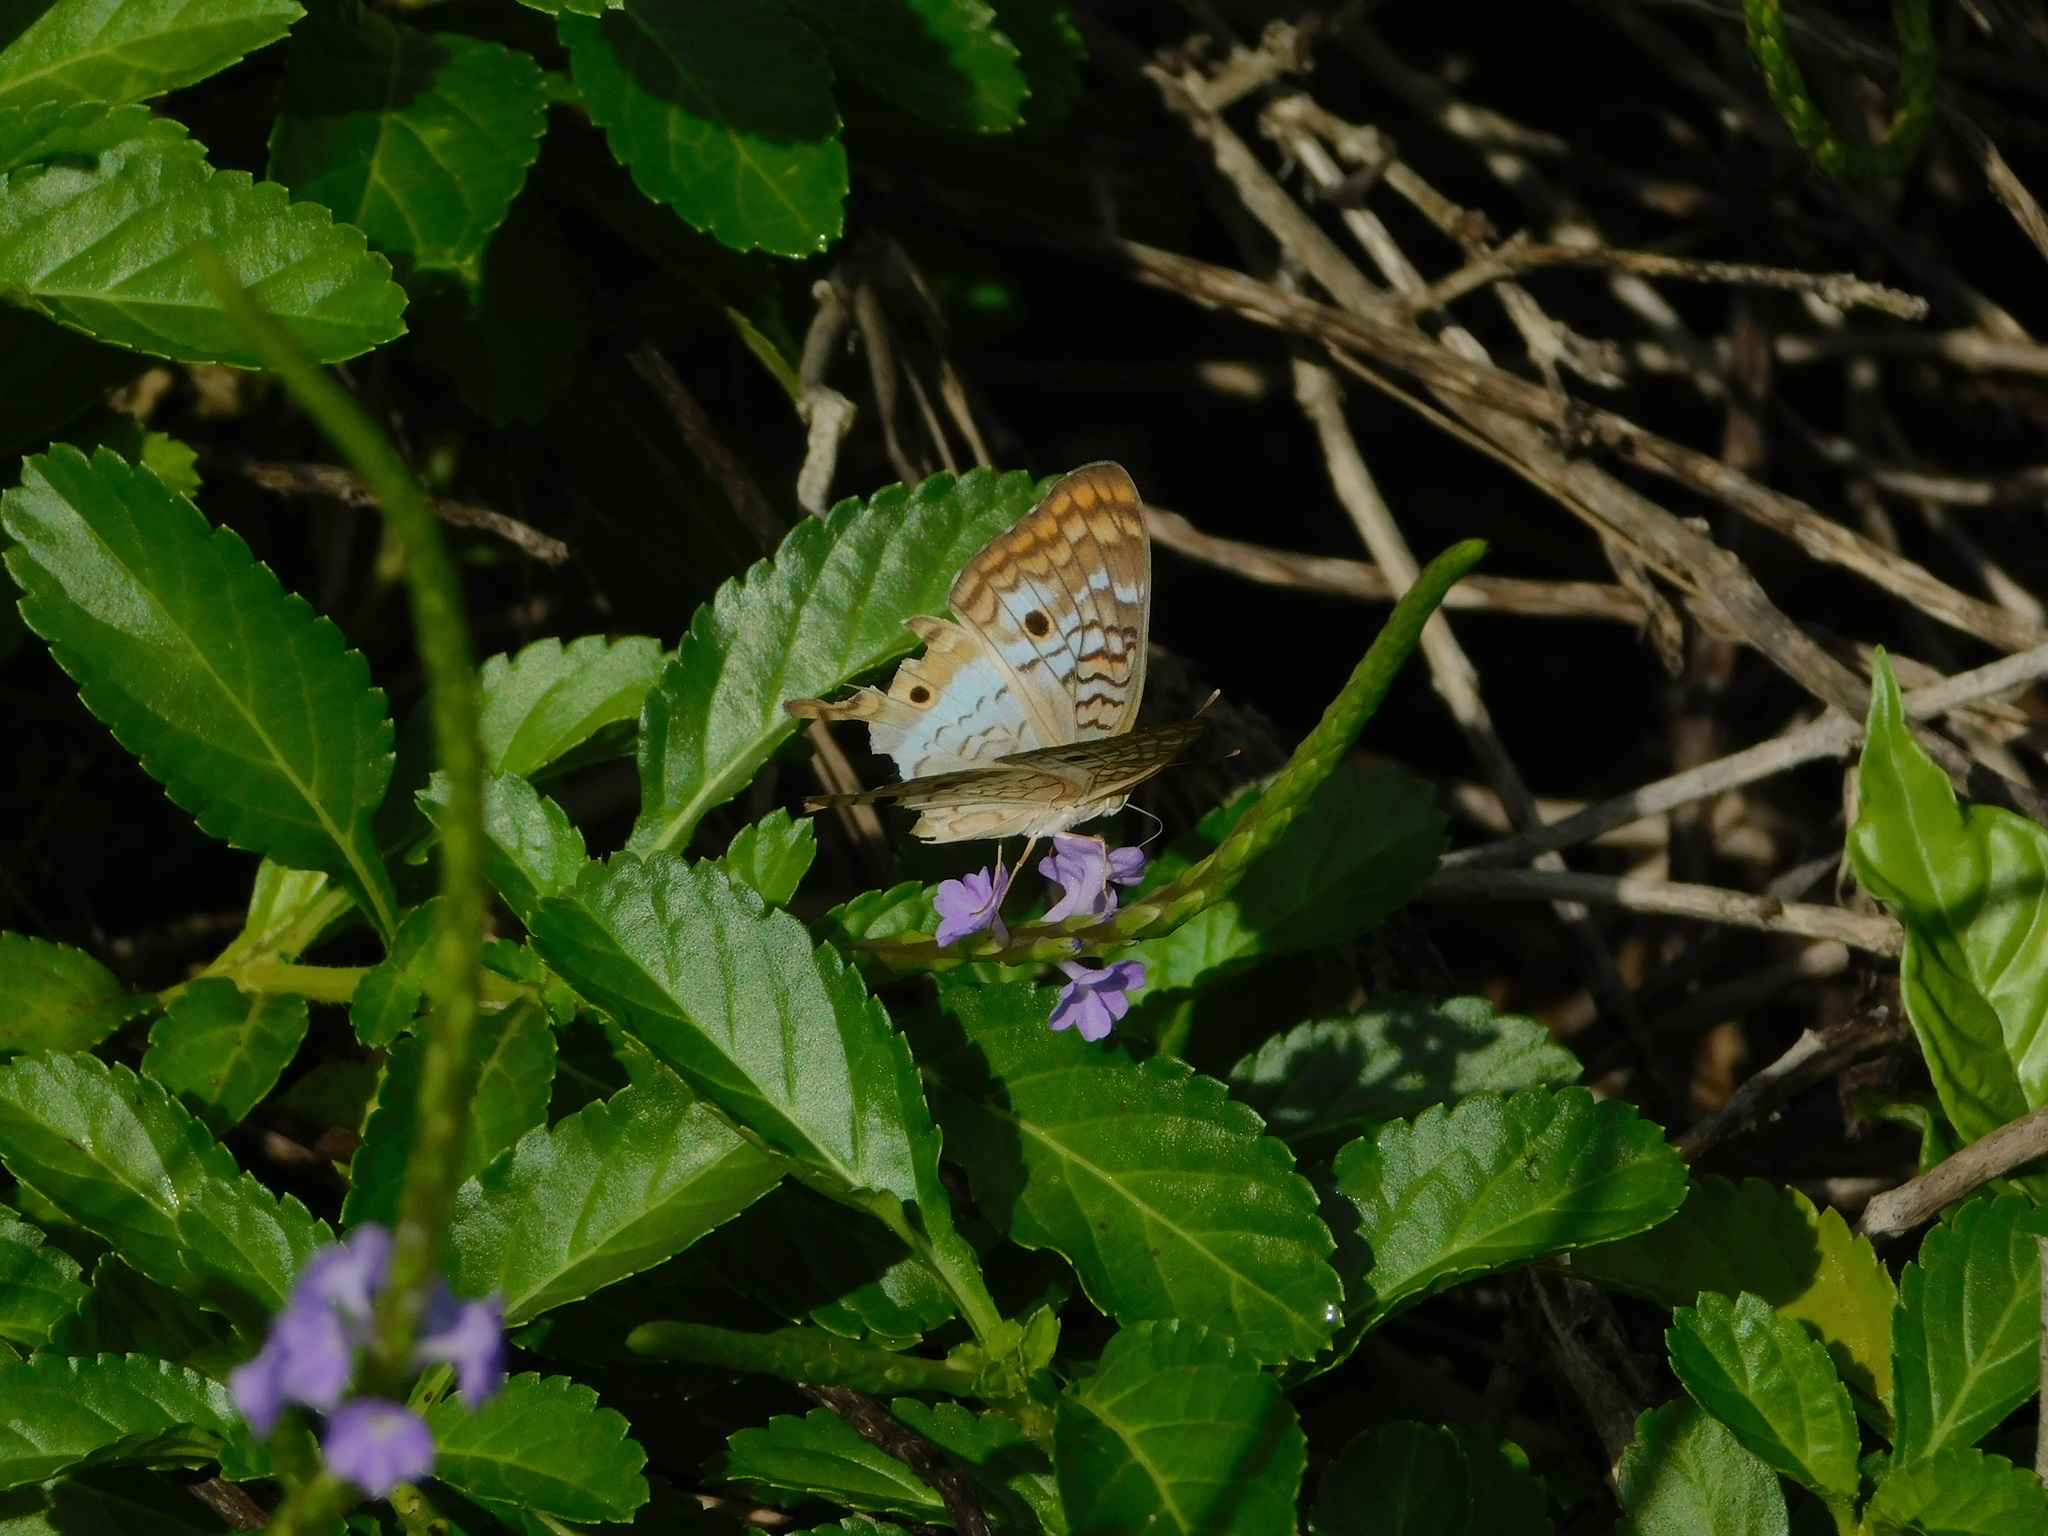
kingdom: Animalia
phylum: Arthropoda
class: Insecta
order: Lepidoptera
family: Nymphalidae
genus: Anartia
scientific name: Anartia jatrophae
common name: White peacock
